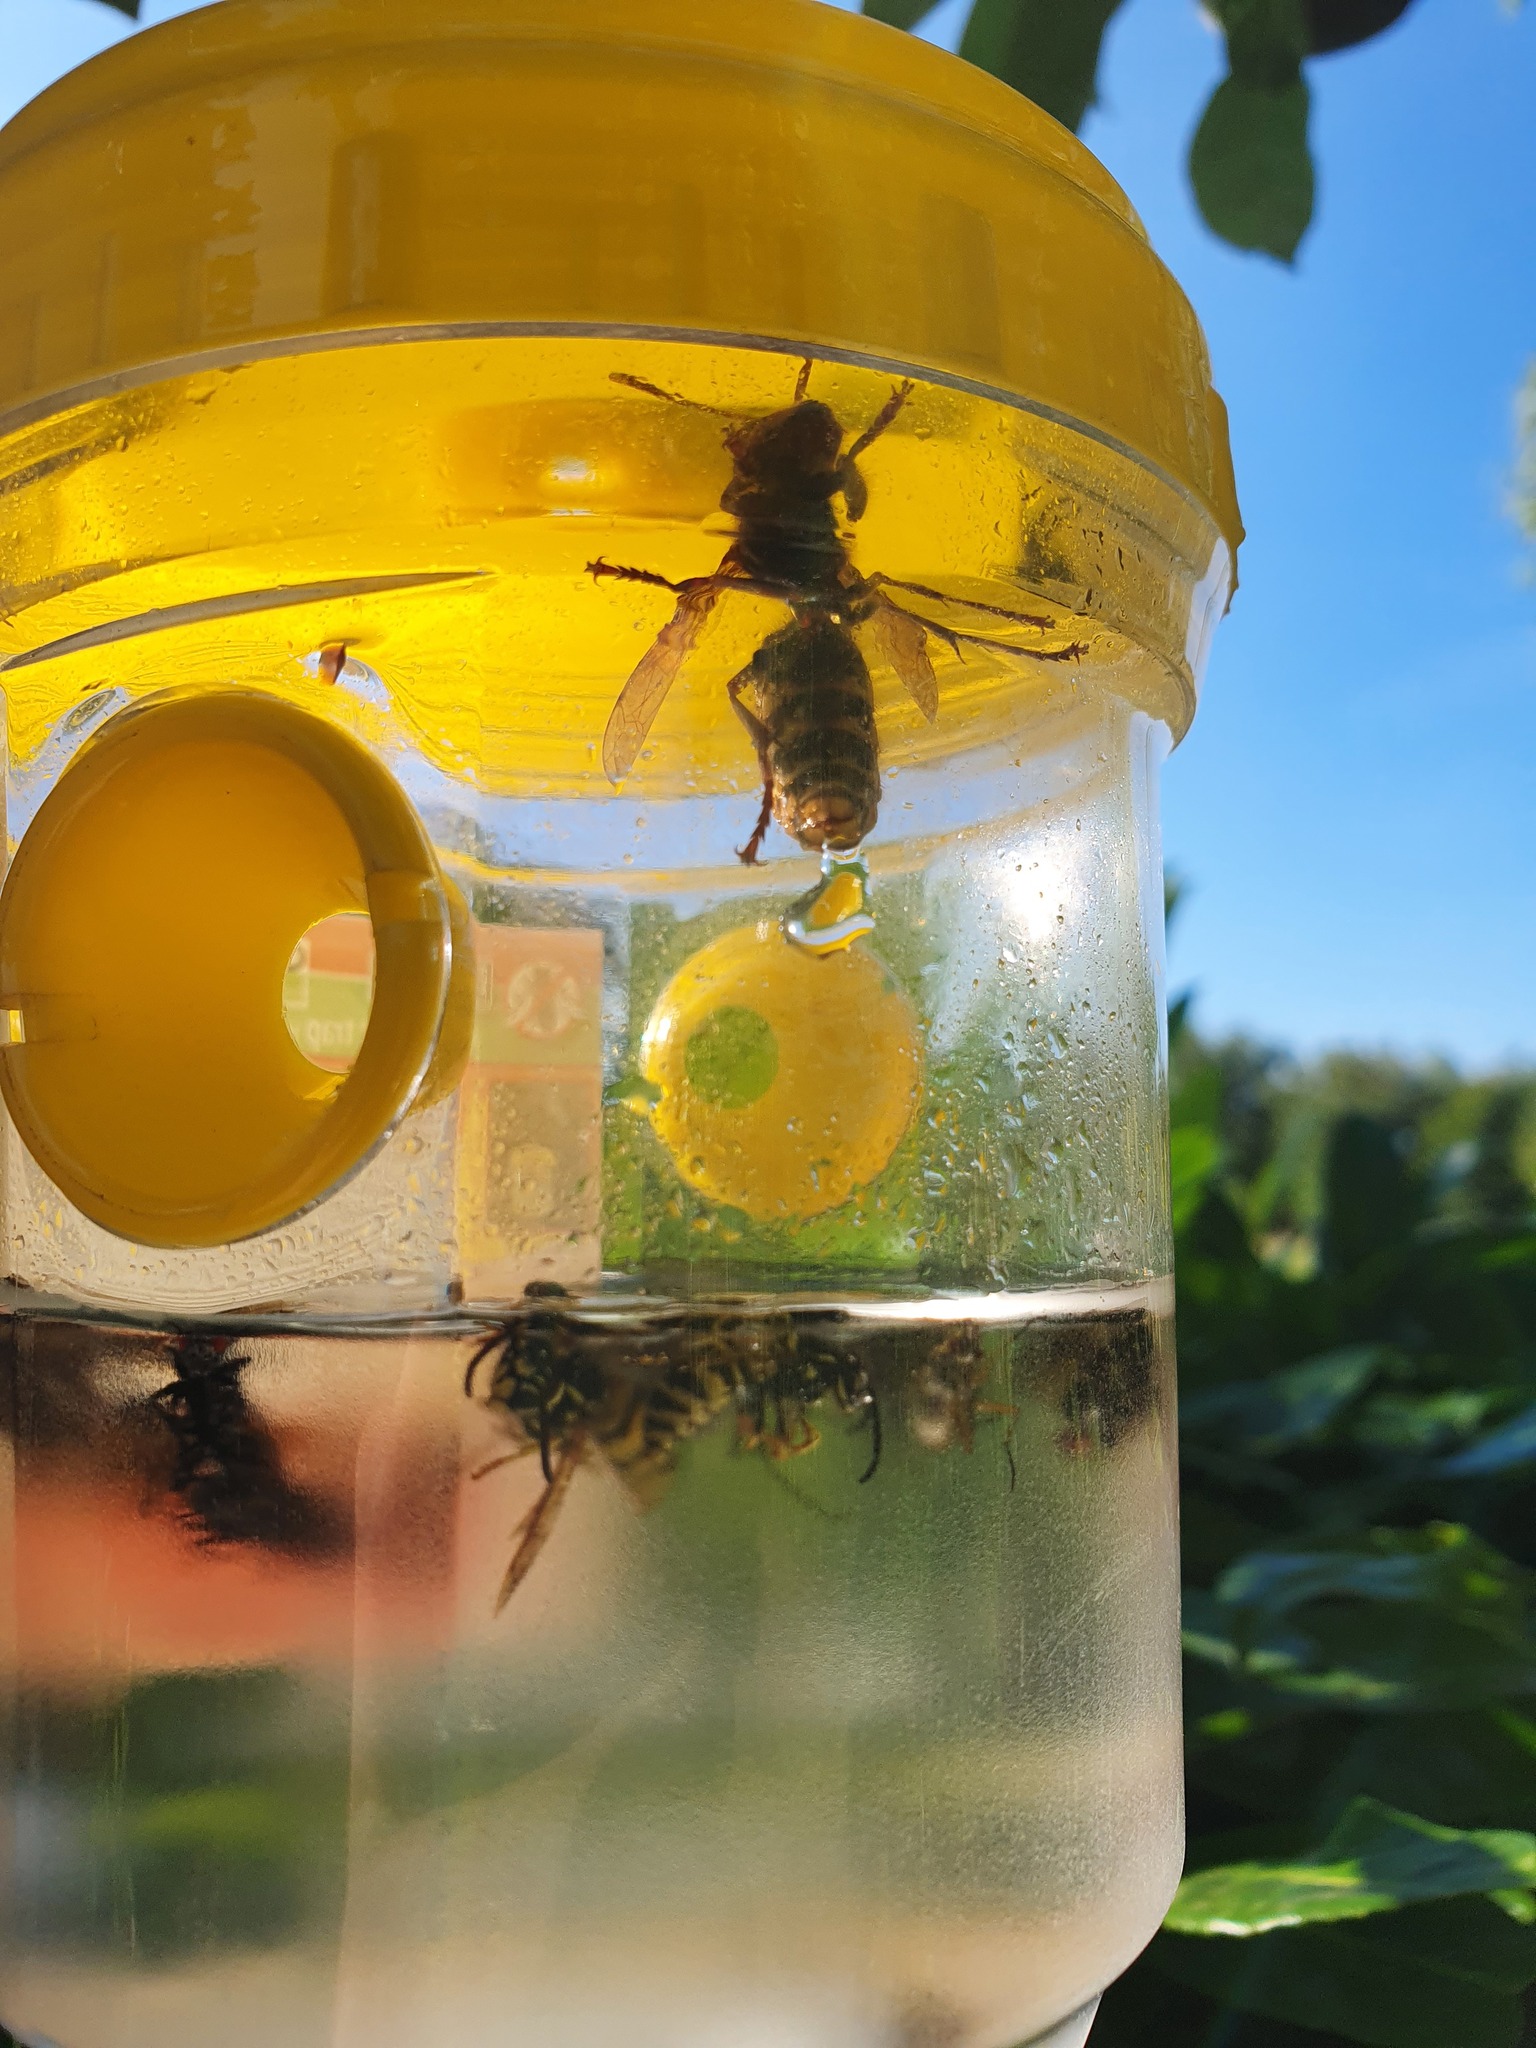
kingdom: Animalia
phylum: Arthropoda
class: Insecta
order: Hymenoptera
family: Vespidae
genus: Vespa
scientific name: Vespa crabro
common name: Hornet
